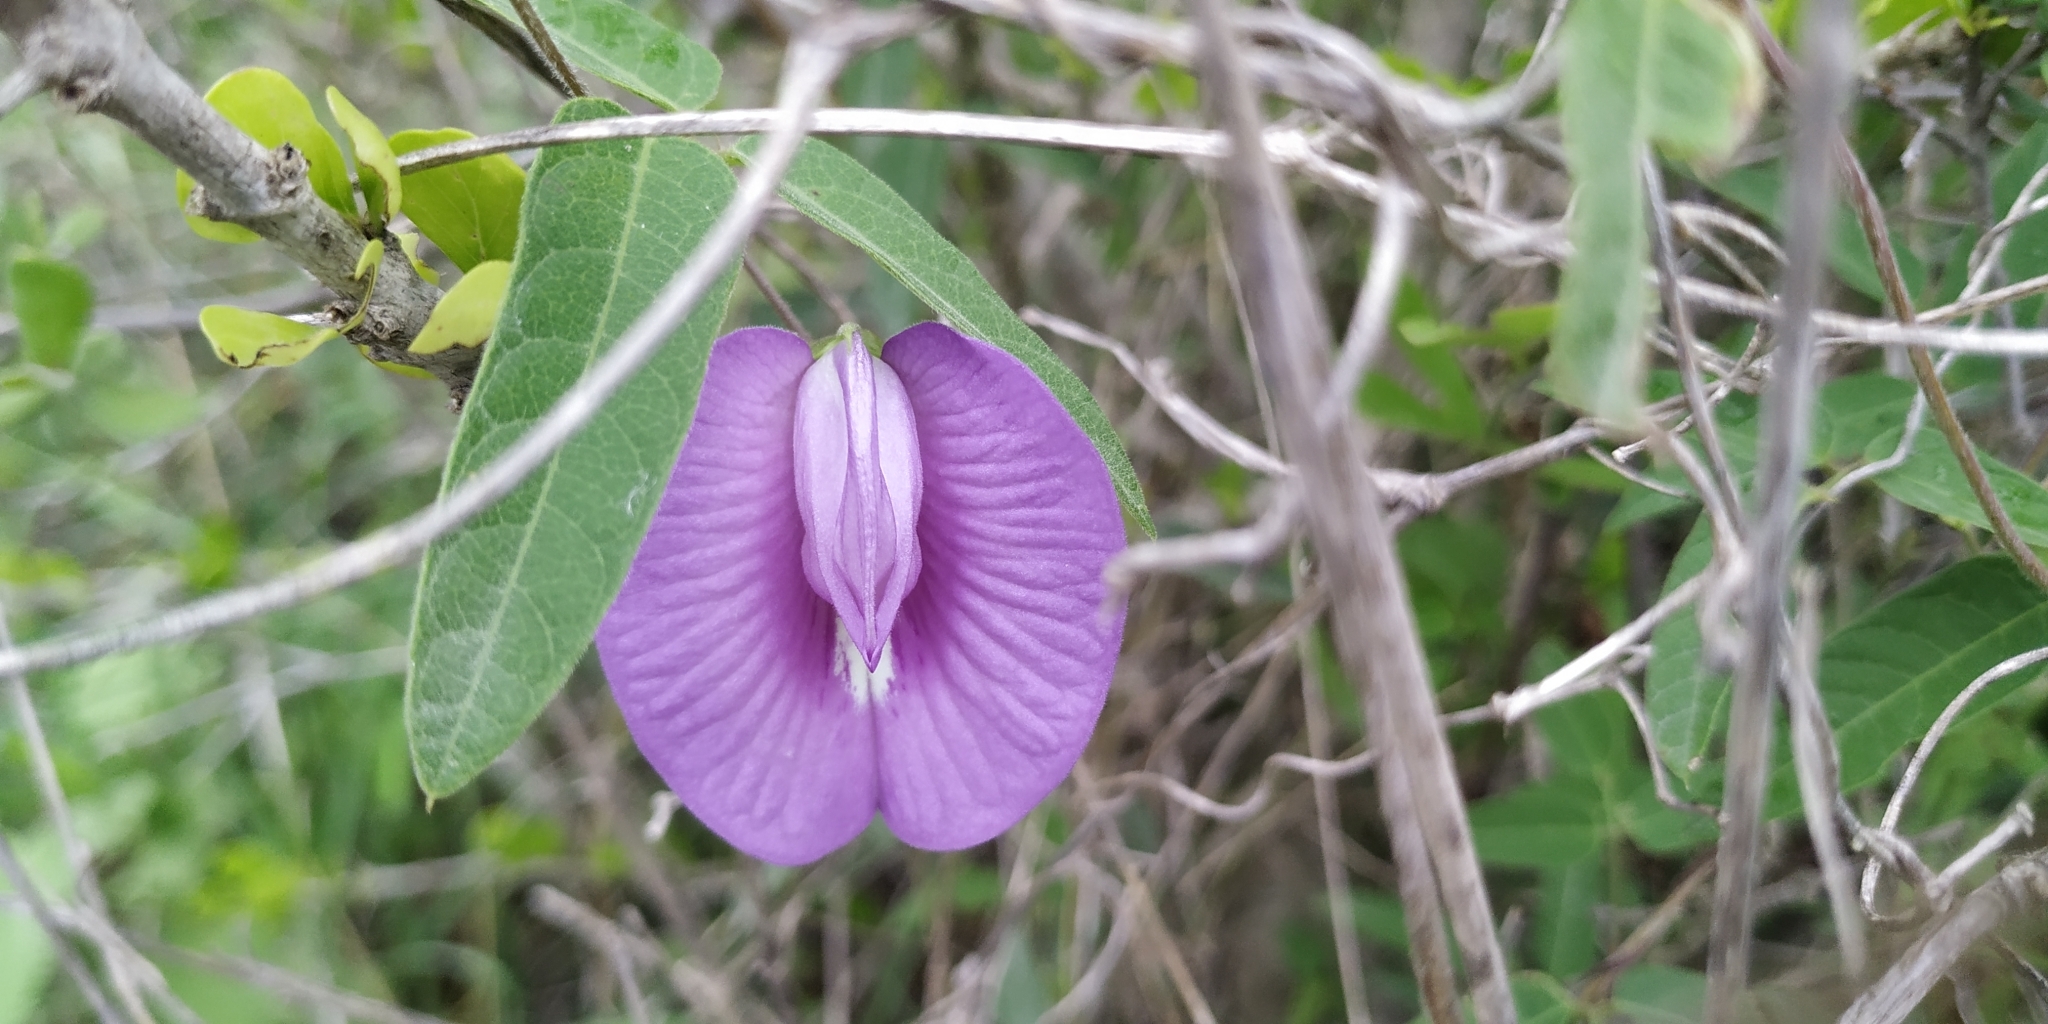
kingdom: Plantae
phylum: Tracheophyta
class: Magnoliopsida
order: Fabales
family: Fabaceae
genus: Centrosema
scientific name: Centrosema virginianum
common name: Butterfly-pea
